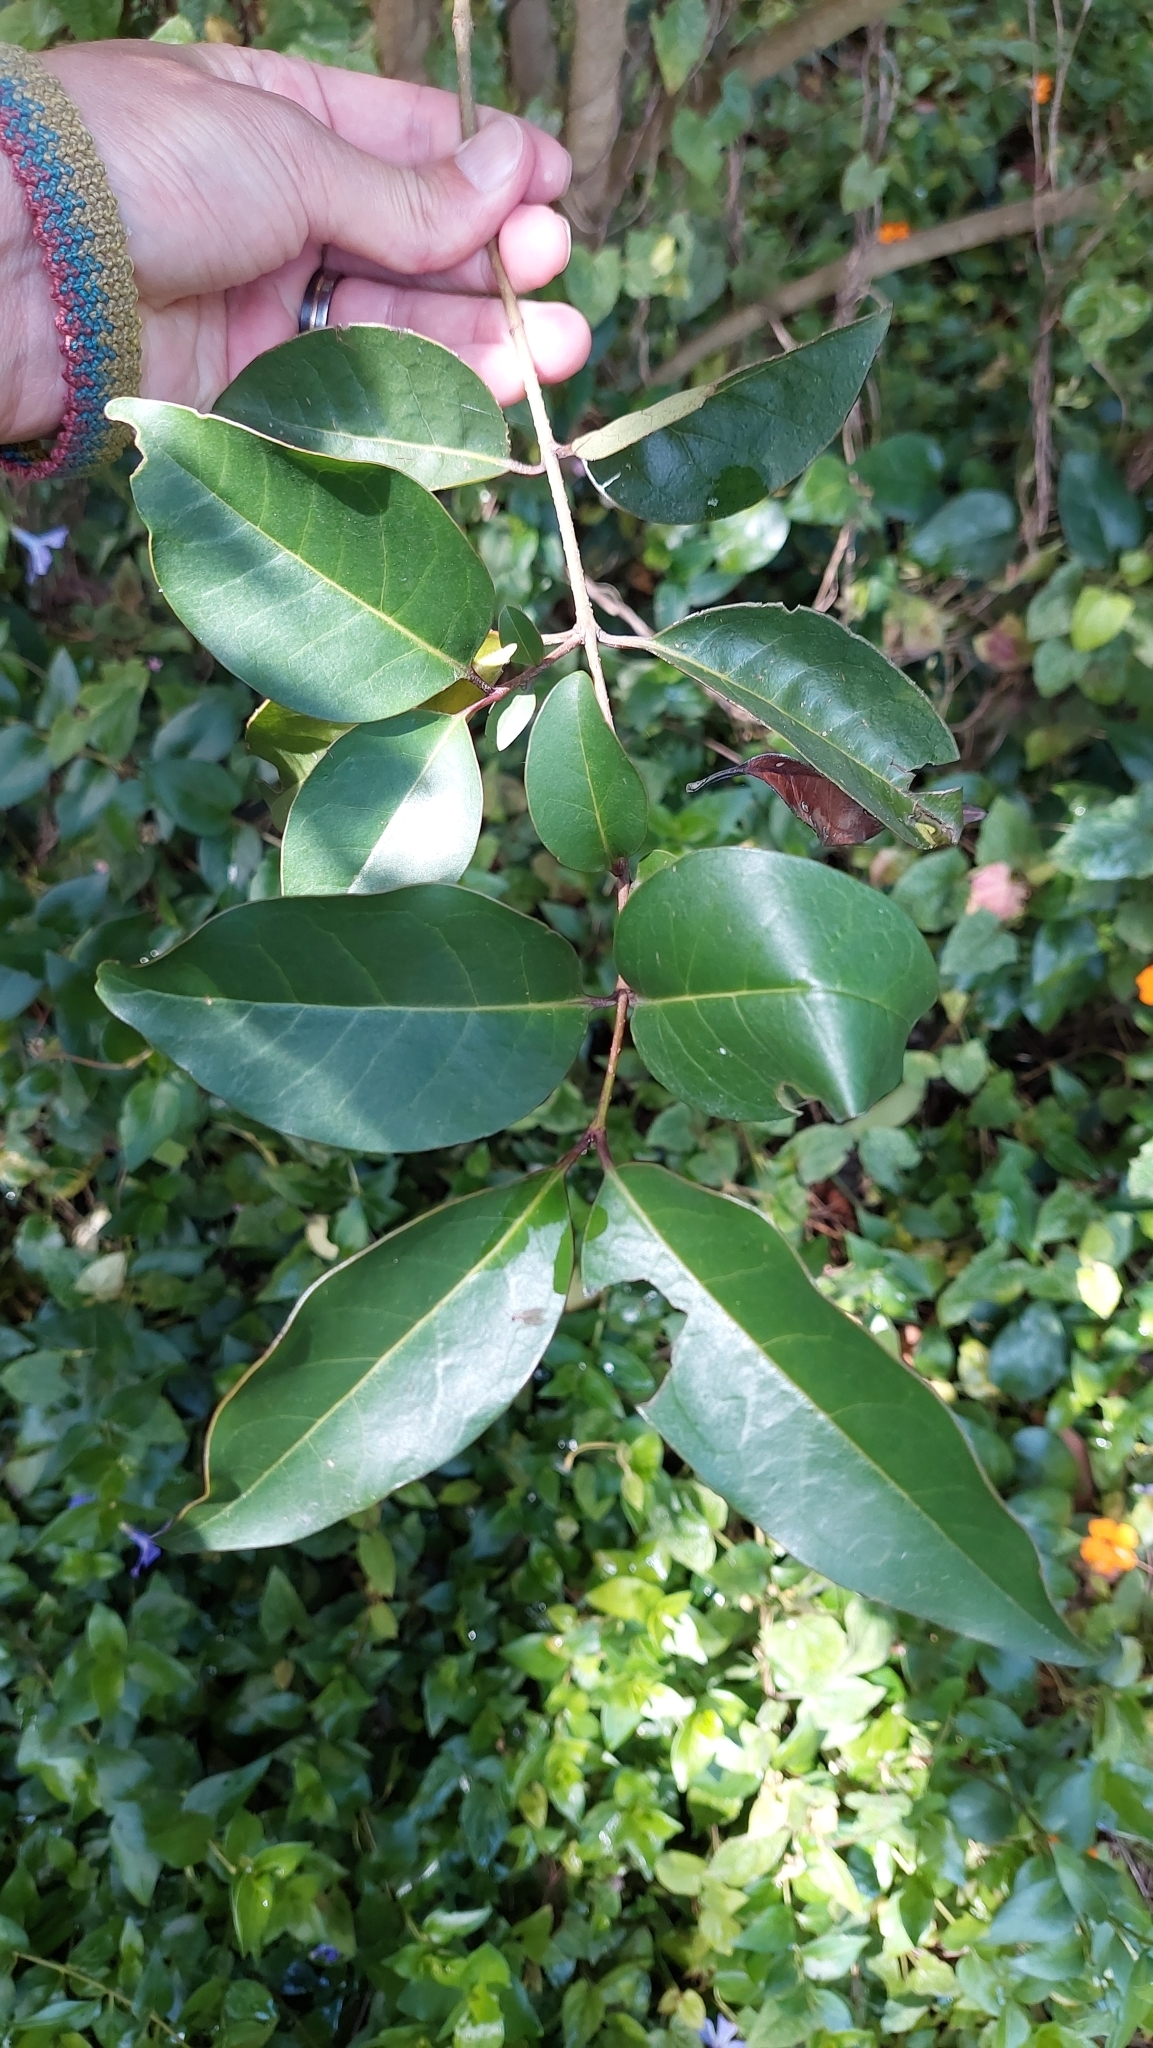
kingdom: Plantae
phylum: Tracheophyta
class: Magnoliopsida
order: Lamiales
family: Oleaceae
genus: Ligustrum
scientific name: Ligustrum lucidum
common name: Glossy privet
